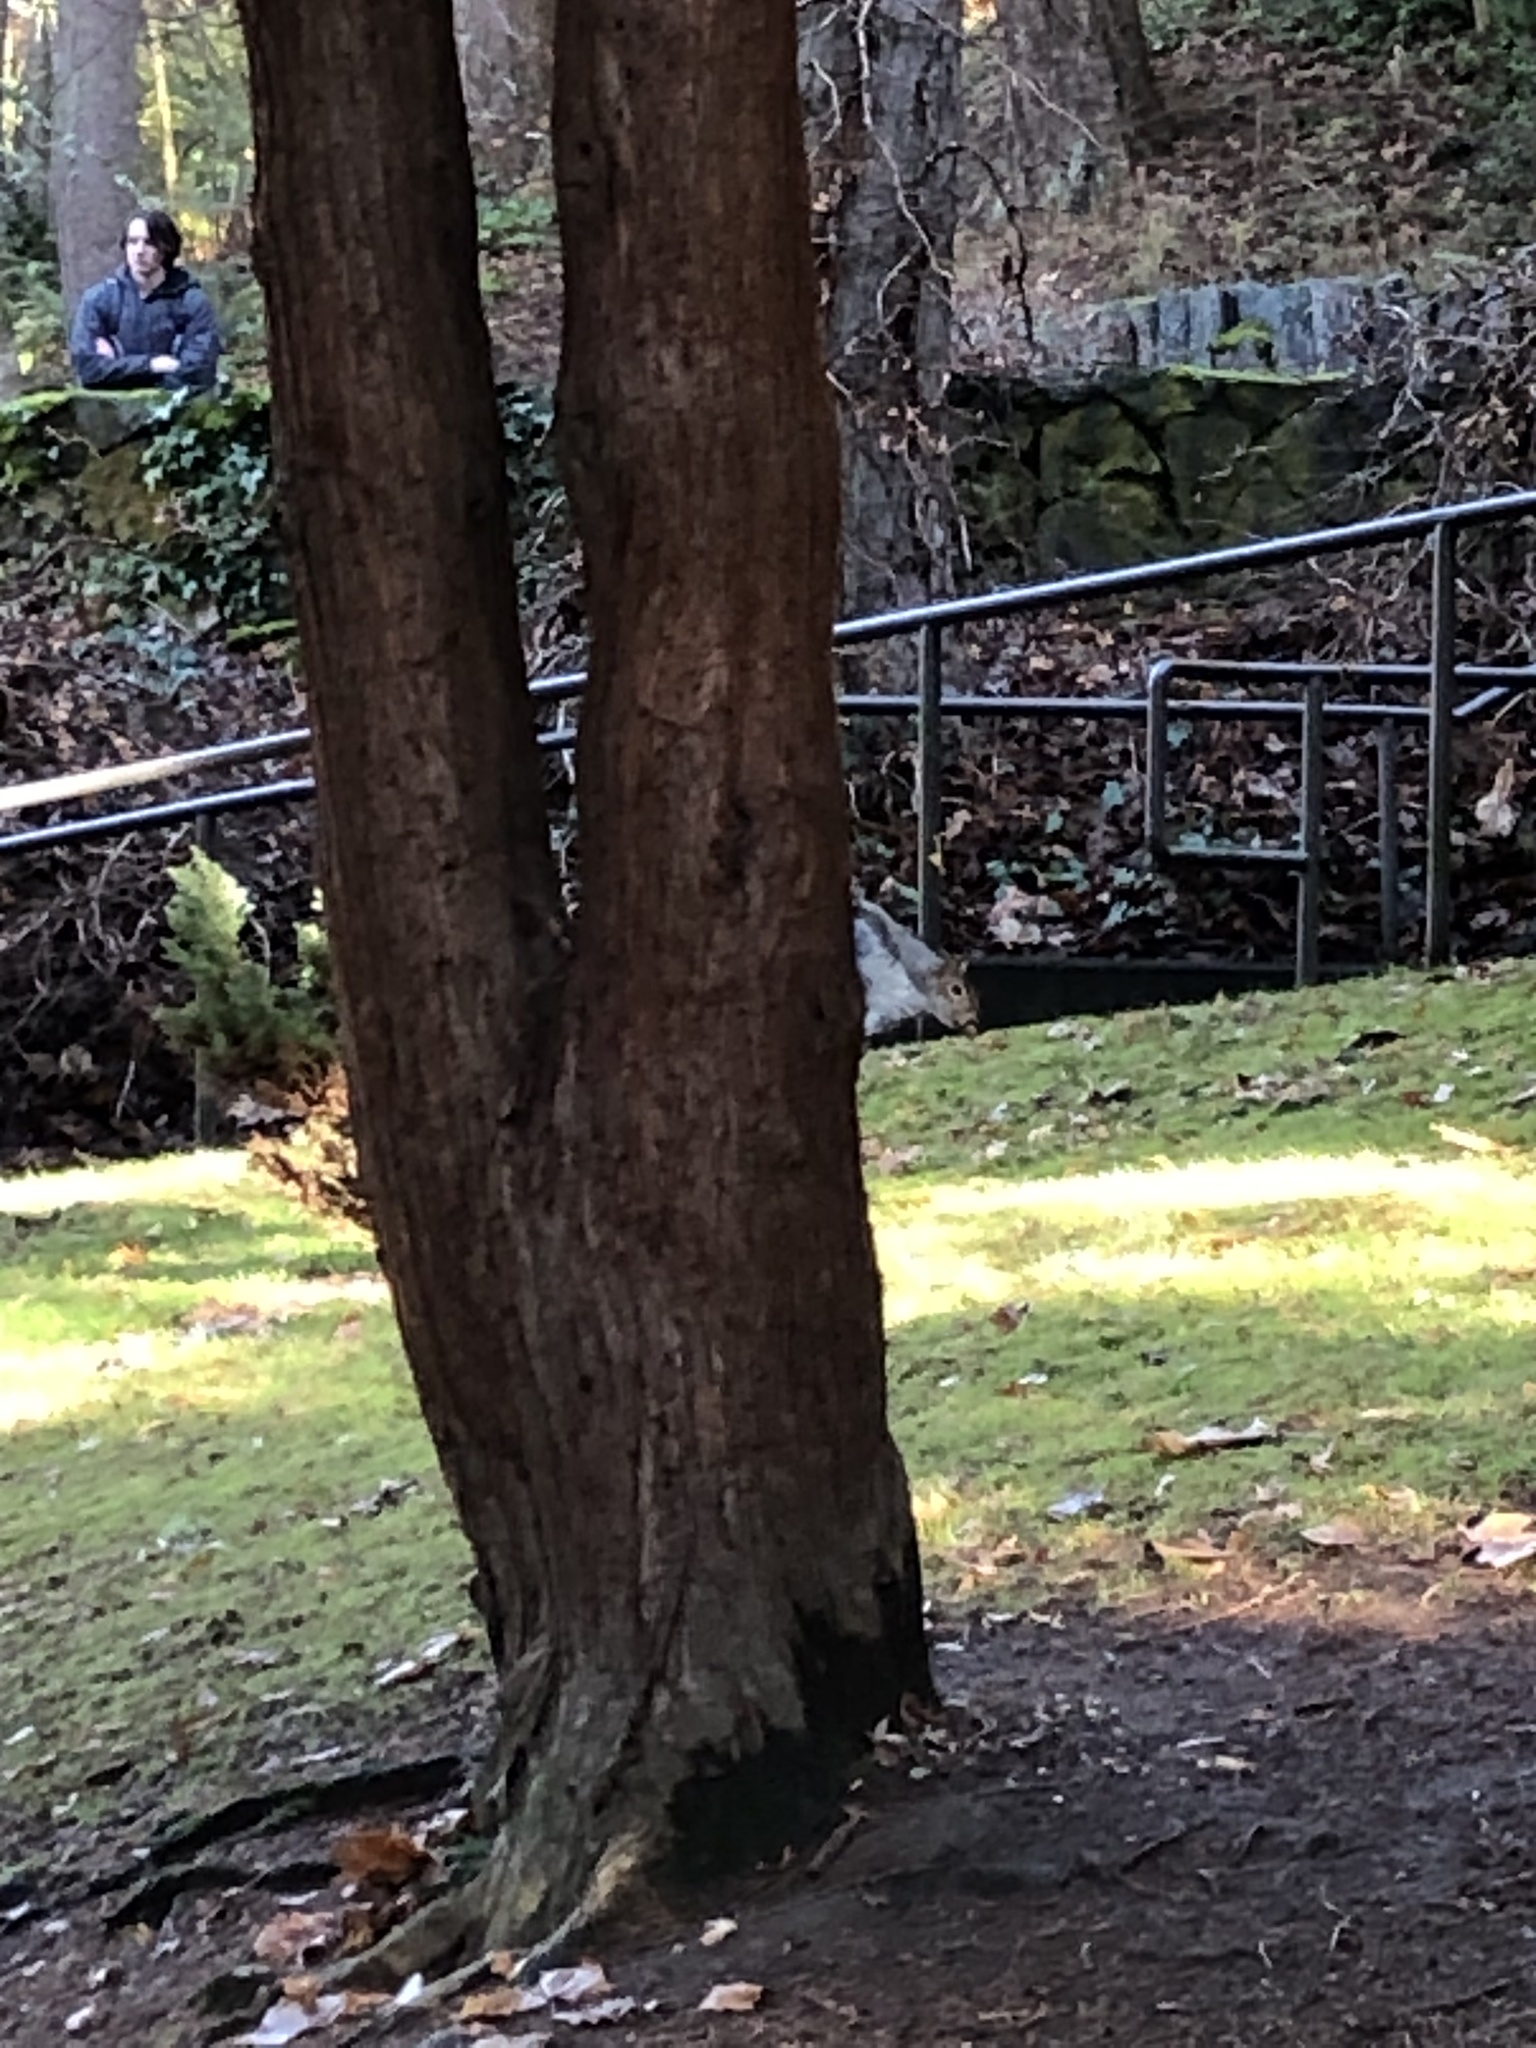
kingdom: Animalia
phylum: Chordata
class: Mammalia
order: Rodentia
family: Sciuridae
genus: Sciurus
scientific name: Sciurus carolinensis
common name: Eastern gray squirrel
